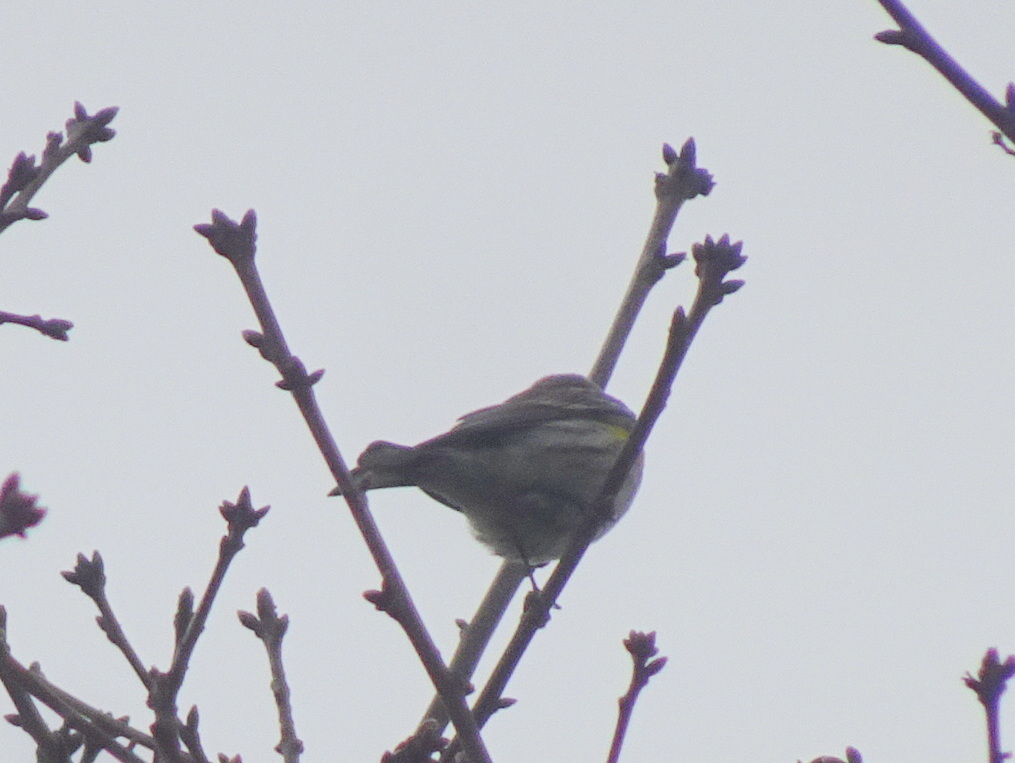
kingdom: Animalia
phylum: Chordata
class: Aves
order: Passeriformes
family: Parulidae
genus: Setophaga
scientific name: Setophaga coronata
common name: Myrtle warbler
